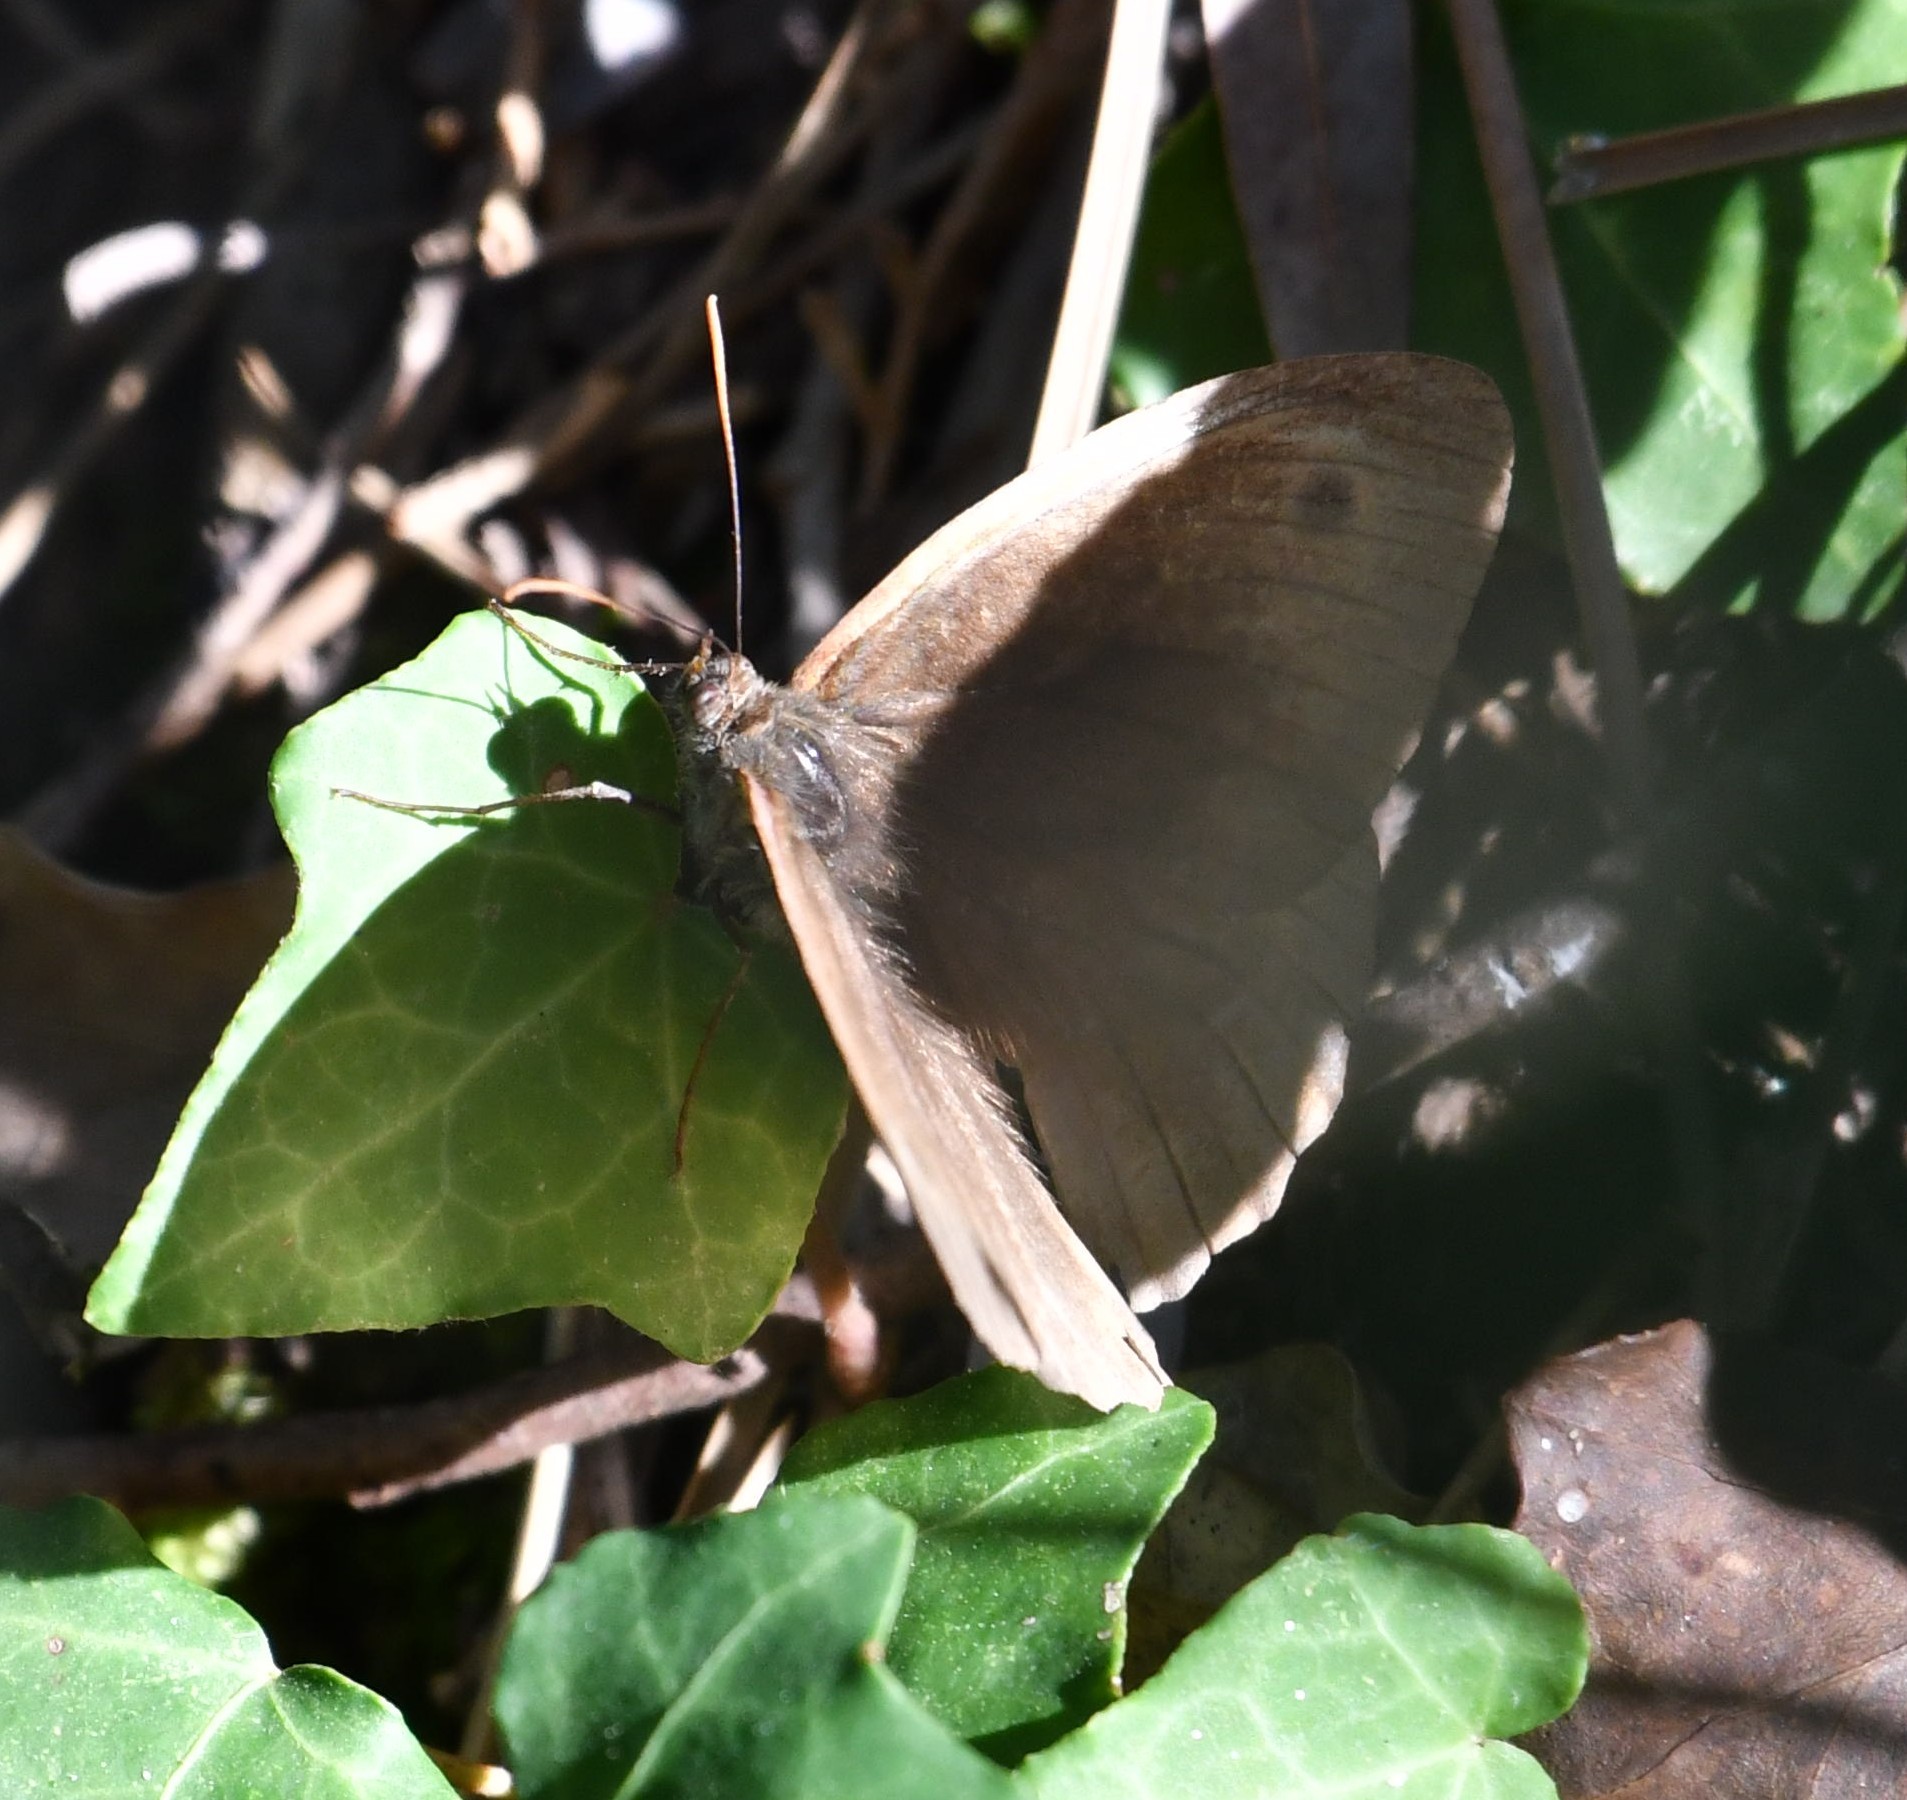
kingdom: Animalia
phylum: Arthropoda
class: Insecta
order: Lepidoptera
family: Nymphalidae
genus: Maniola
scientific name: Maniola jurtina
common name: Meadow brown
